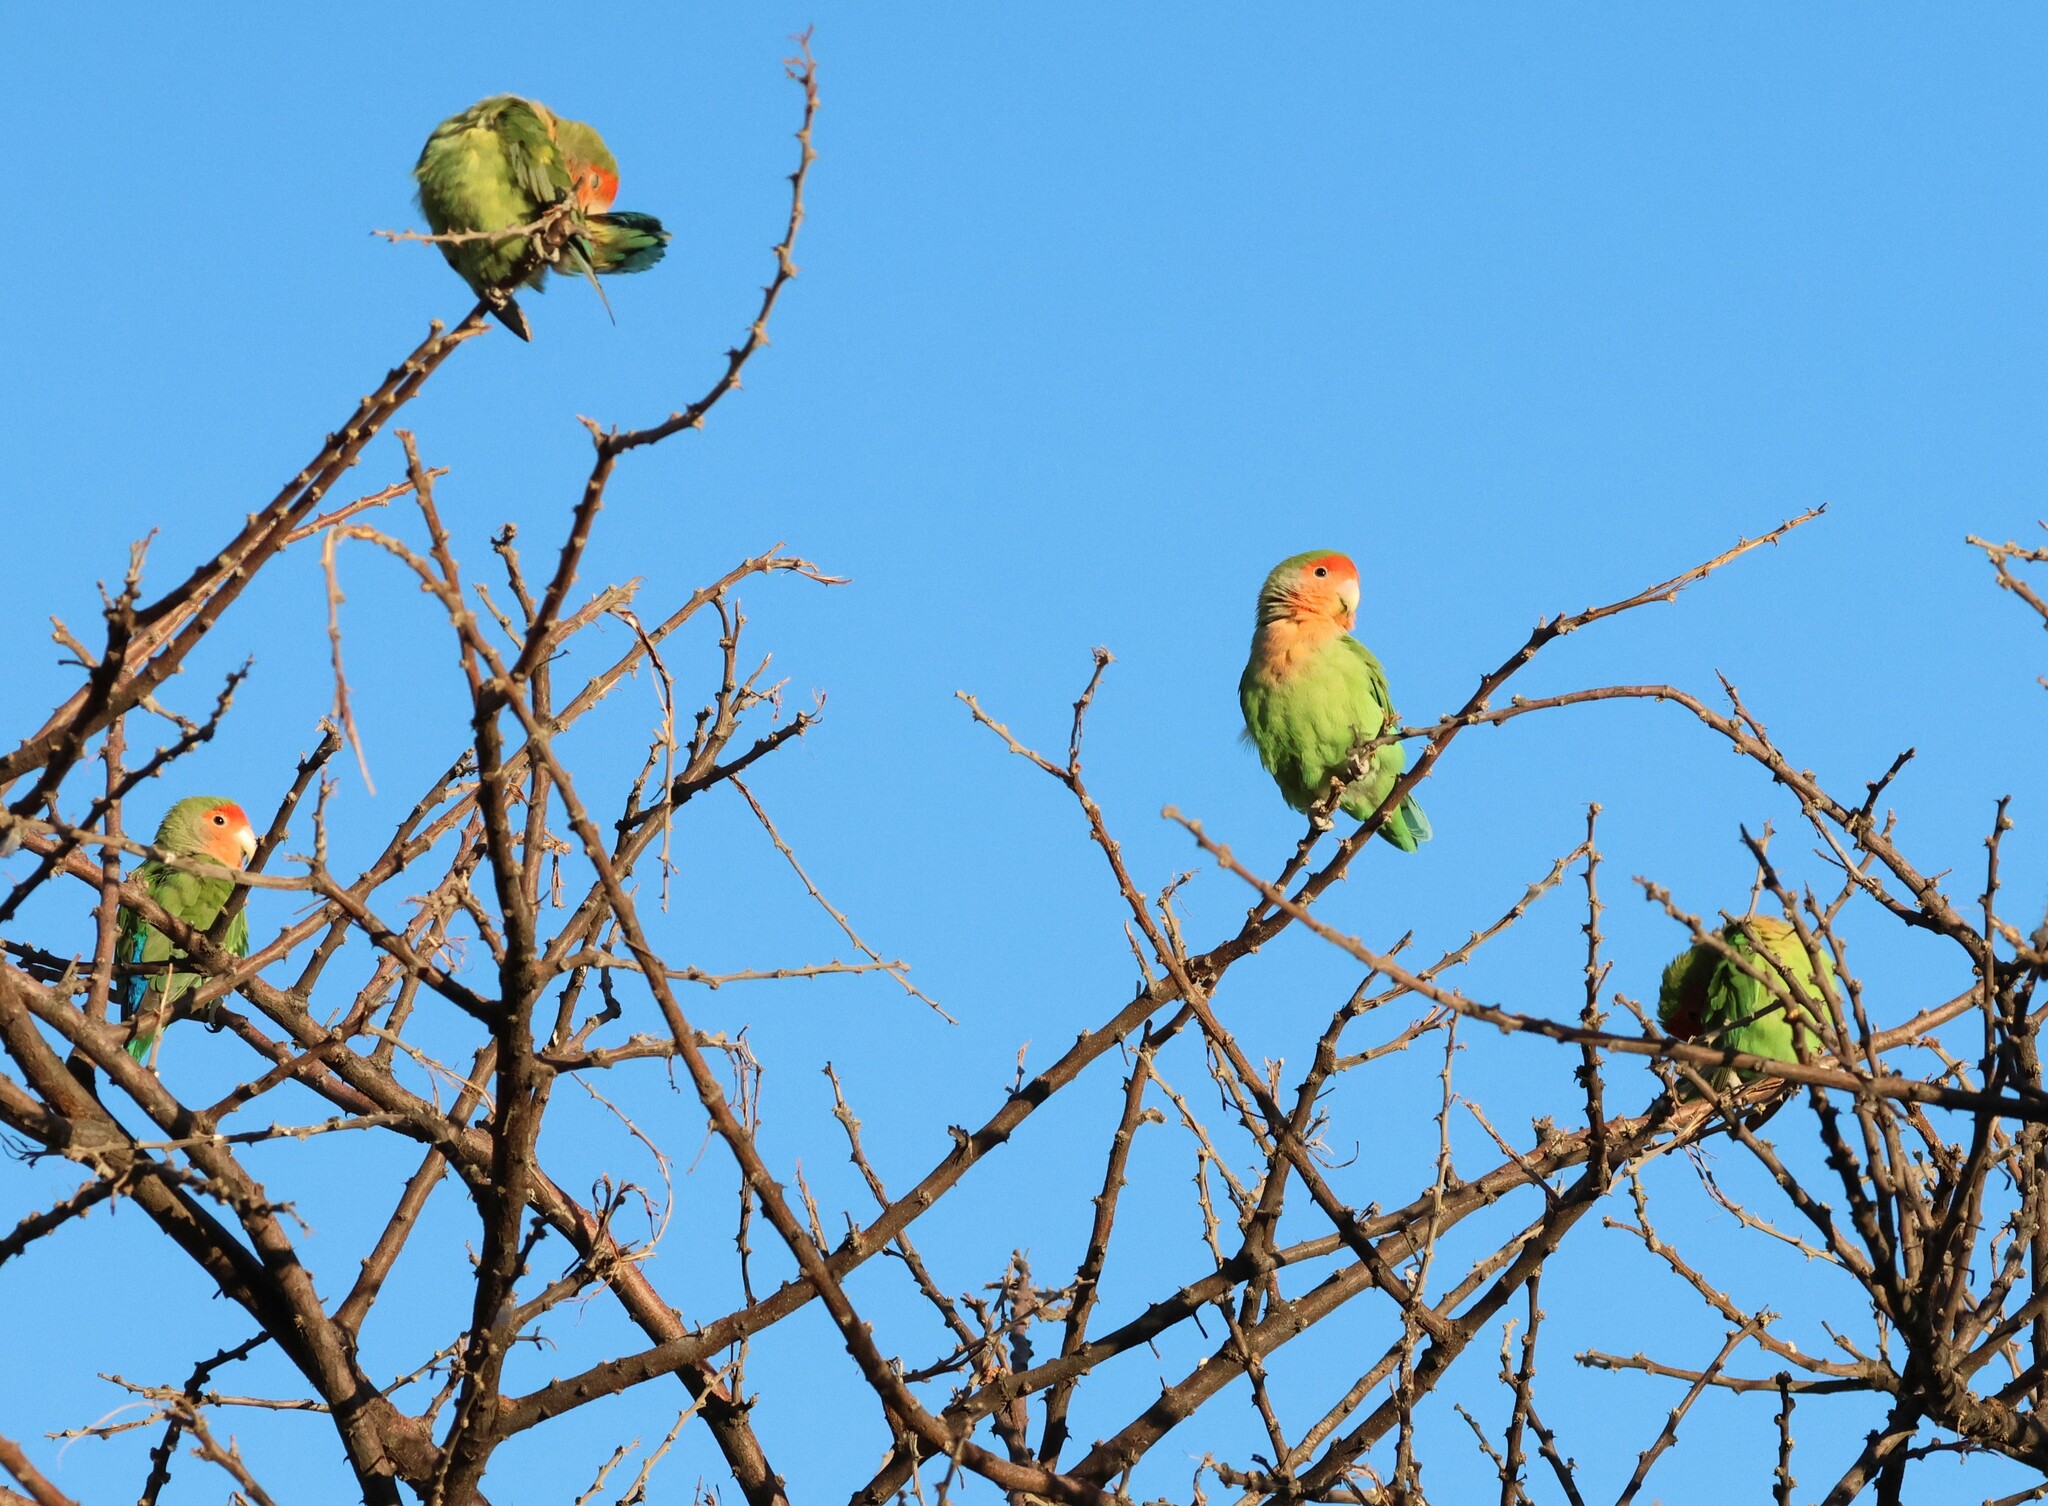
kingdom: Animalia
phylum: Chordata
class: Aves
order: Psittaciformes
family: Psittacidae
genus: Agapornis
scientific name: Agapornis roseicollis
